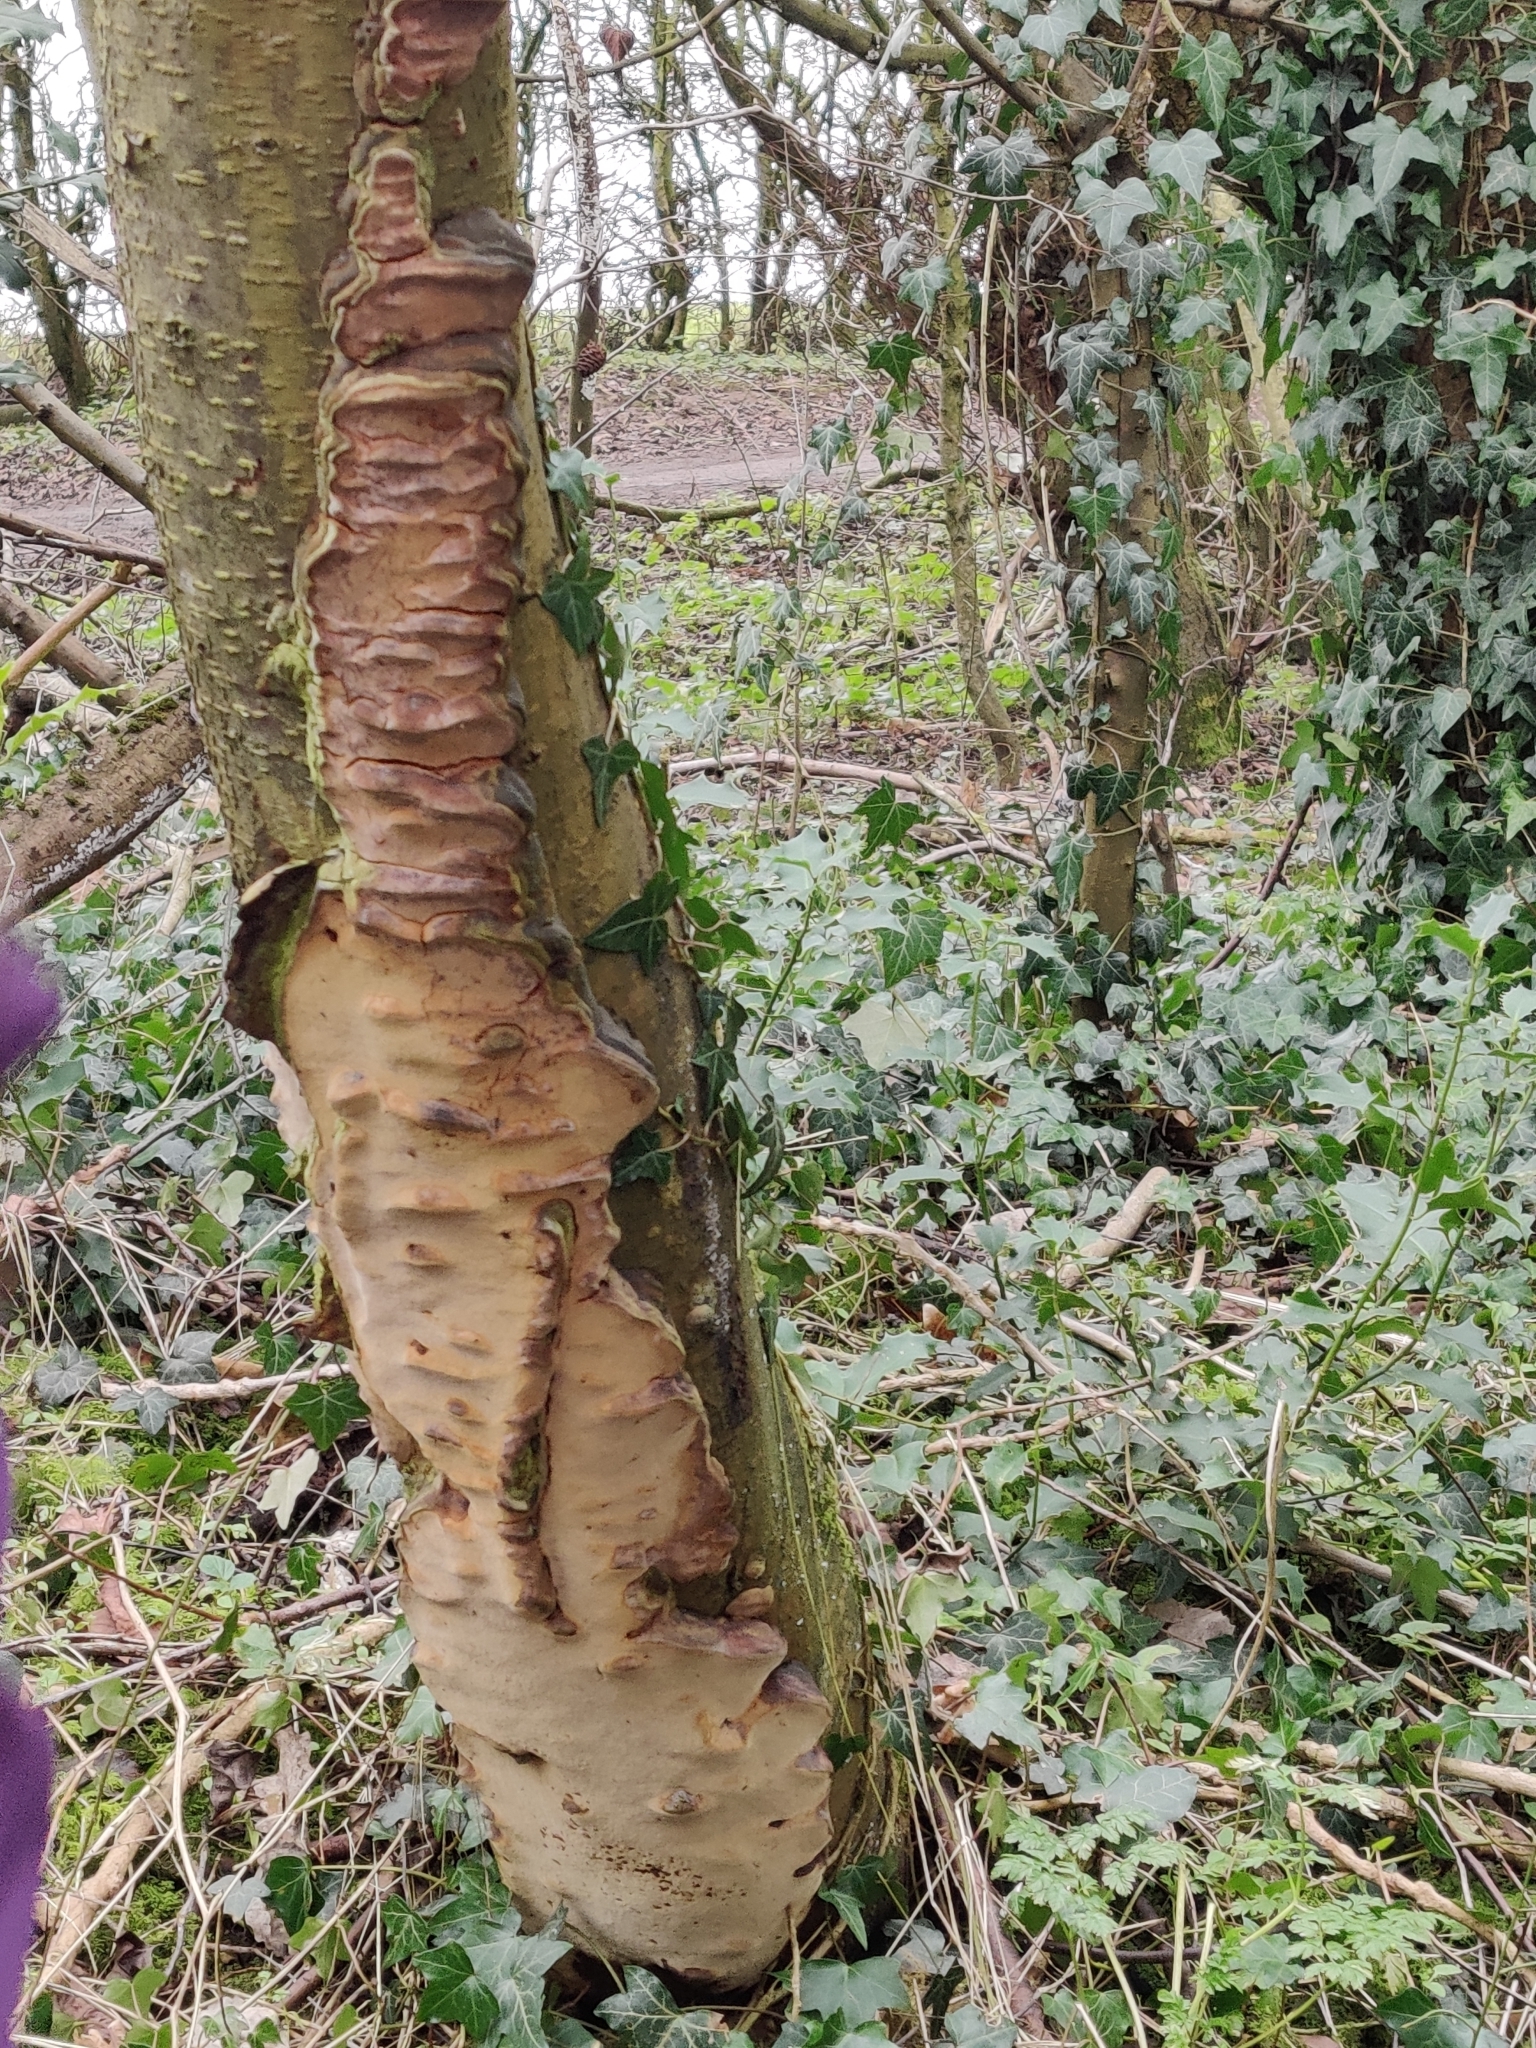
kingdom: Fungi
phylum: Basidiomycota
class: Agaricomycetes
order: Hymenochaetales
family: Hymenochaetaceae
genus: Phellinus
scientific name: Phellinus pomaceus
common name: Cushion bracket
